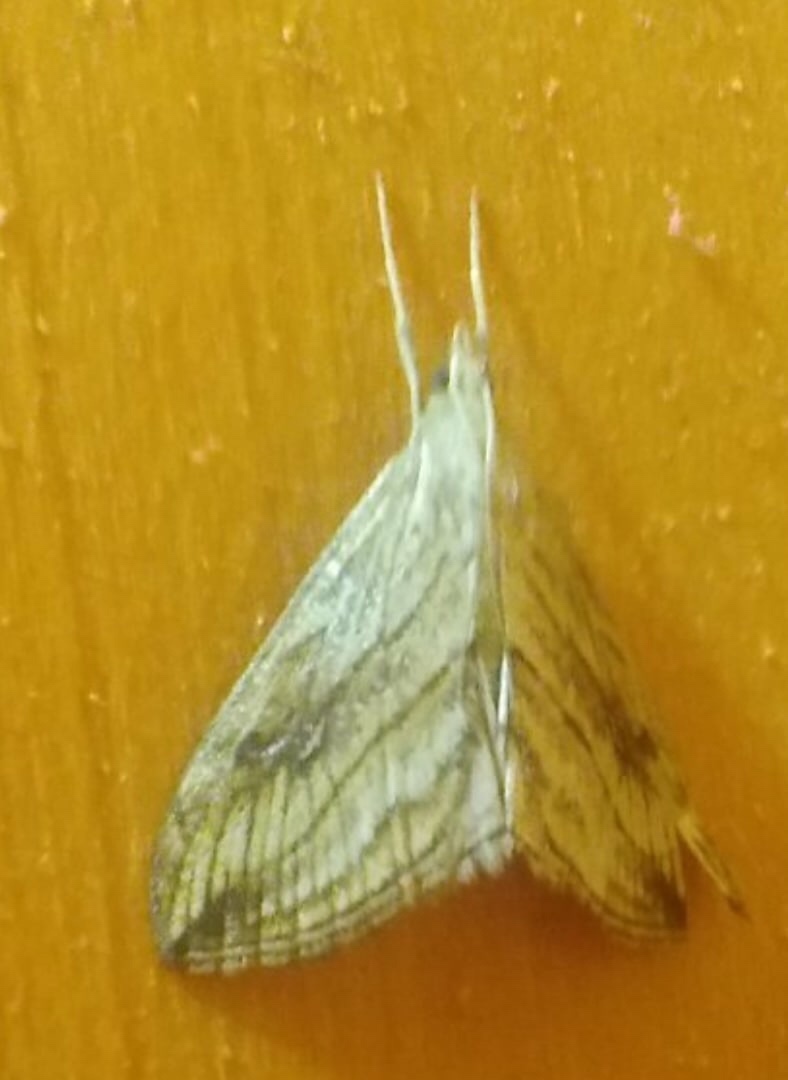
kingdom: Animalia
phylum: Arthropoda
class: Insecta
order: Lepidoptera
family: Crambidae
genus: Evergestis
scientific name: Evergestis forficalis
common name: Garden pebble
